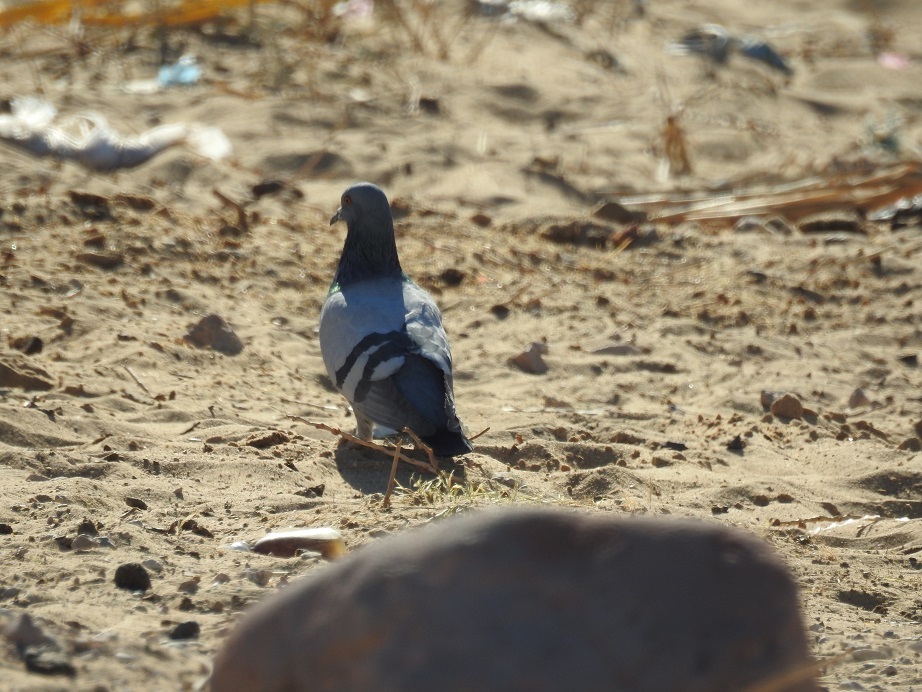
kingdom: Animalia
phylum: Chordata
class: Aves
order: Columbiformes
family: Columbidae
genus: Columba
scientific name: Columba livia
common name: Rock pigeon
